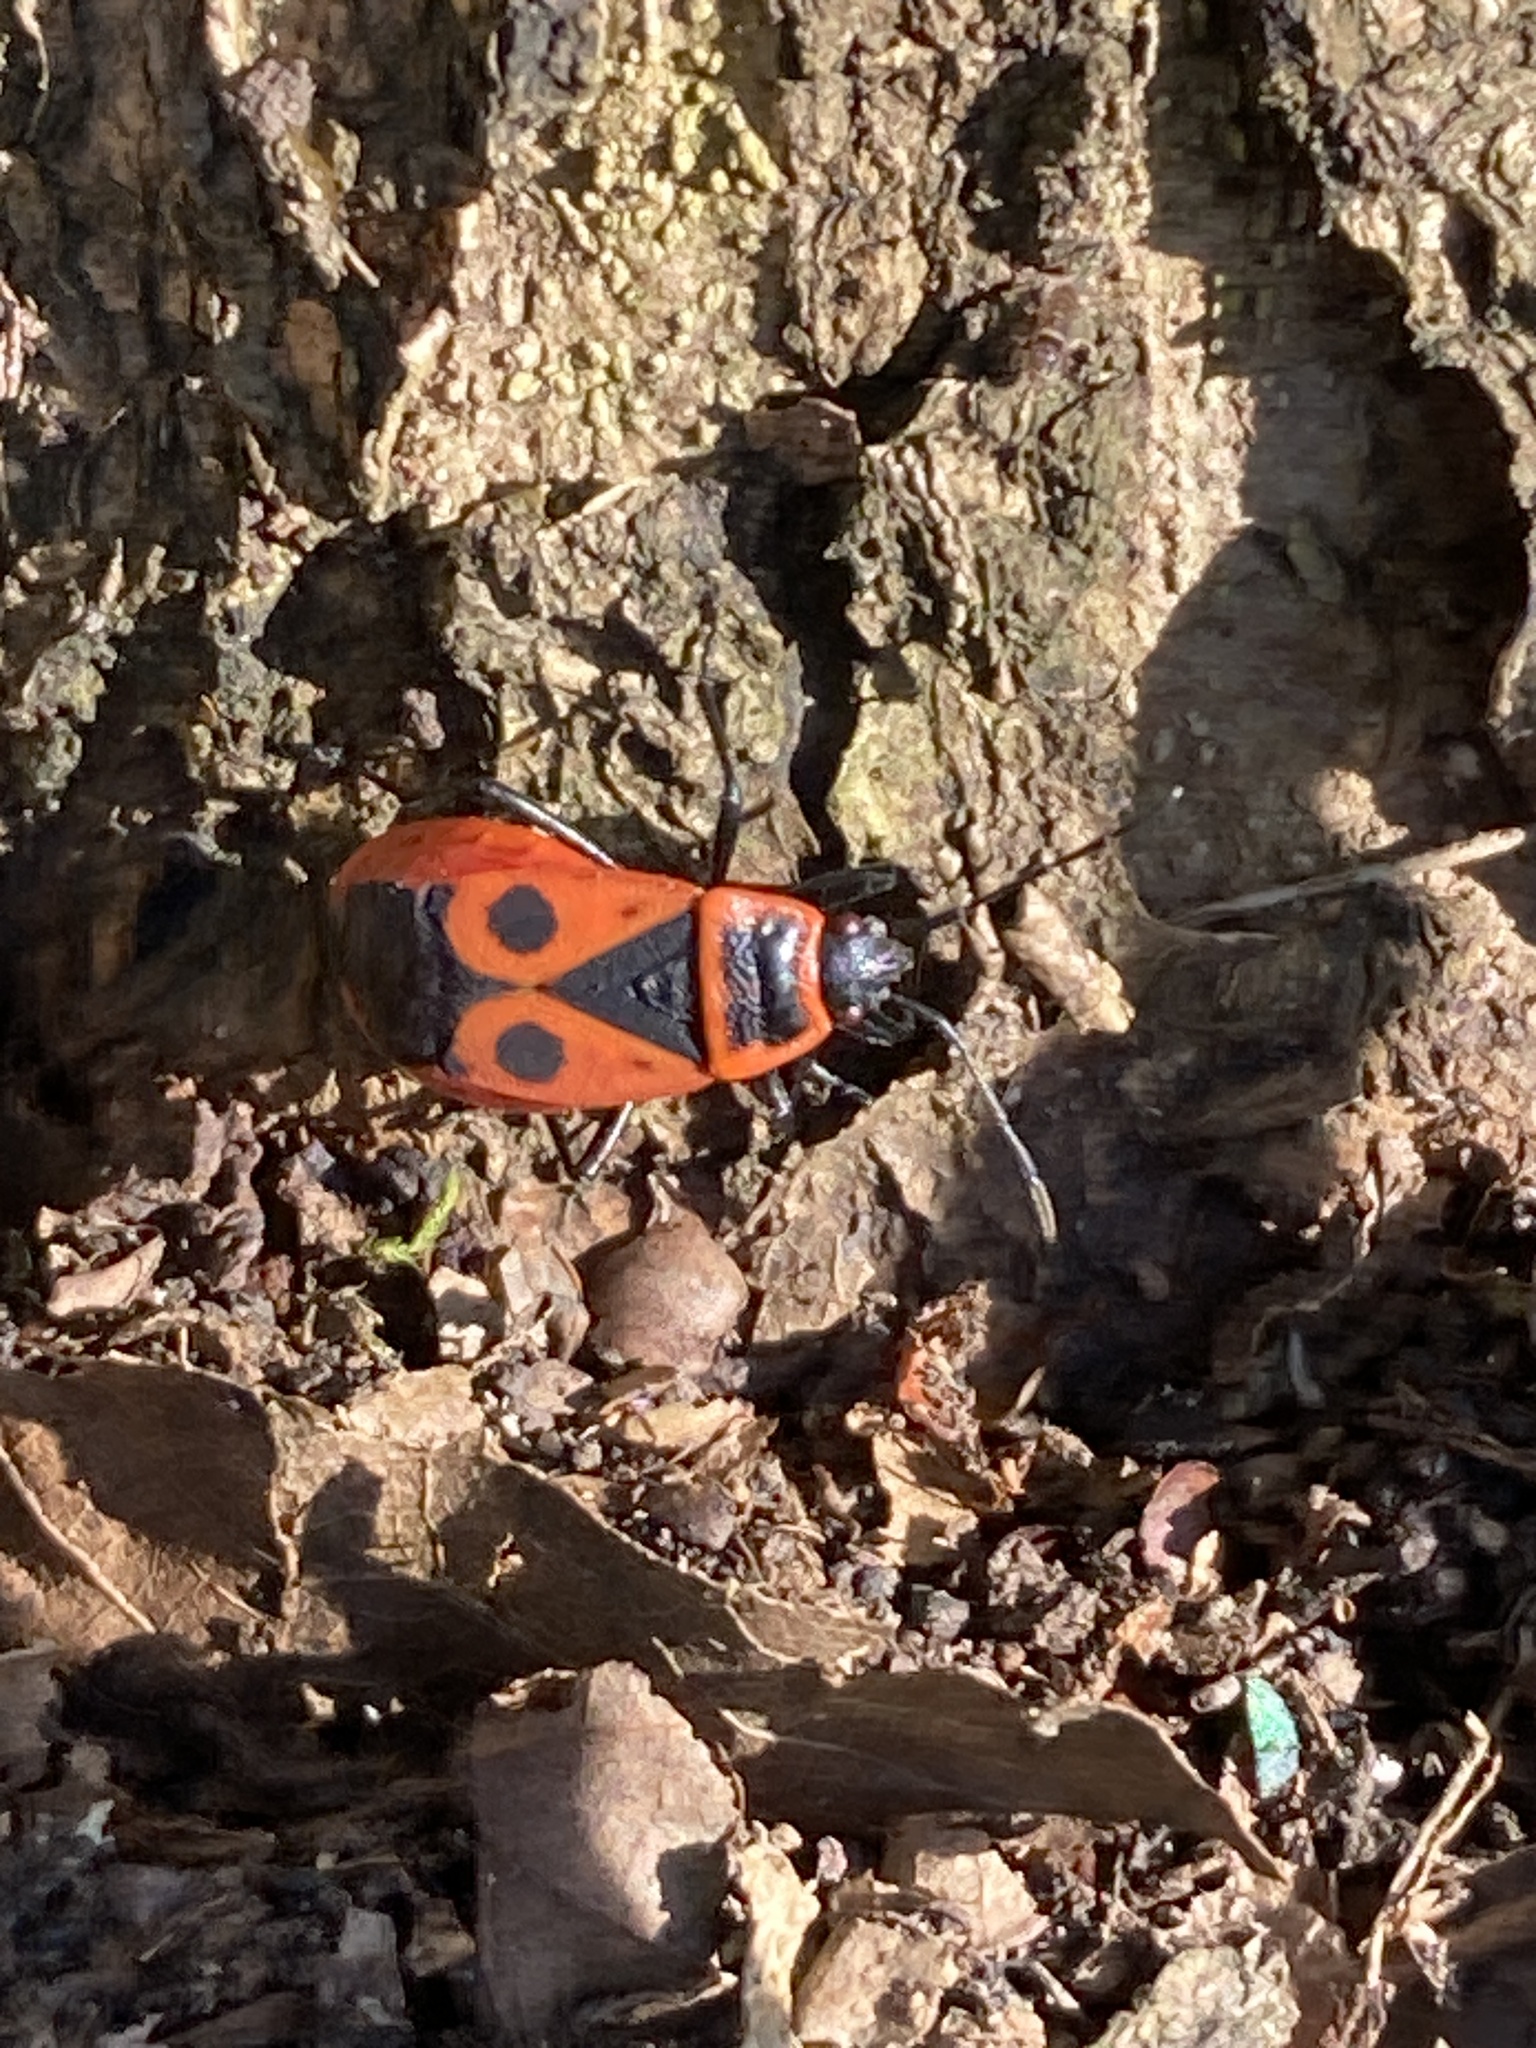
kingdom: Animalia
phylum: Arthropoda
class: Insecta
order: Hemiptera
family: Pyrrhocoridae
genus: Pyrrhocoris
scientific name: Pyrrhocoris apterus
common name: Firebug
